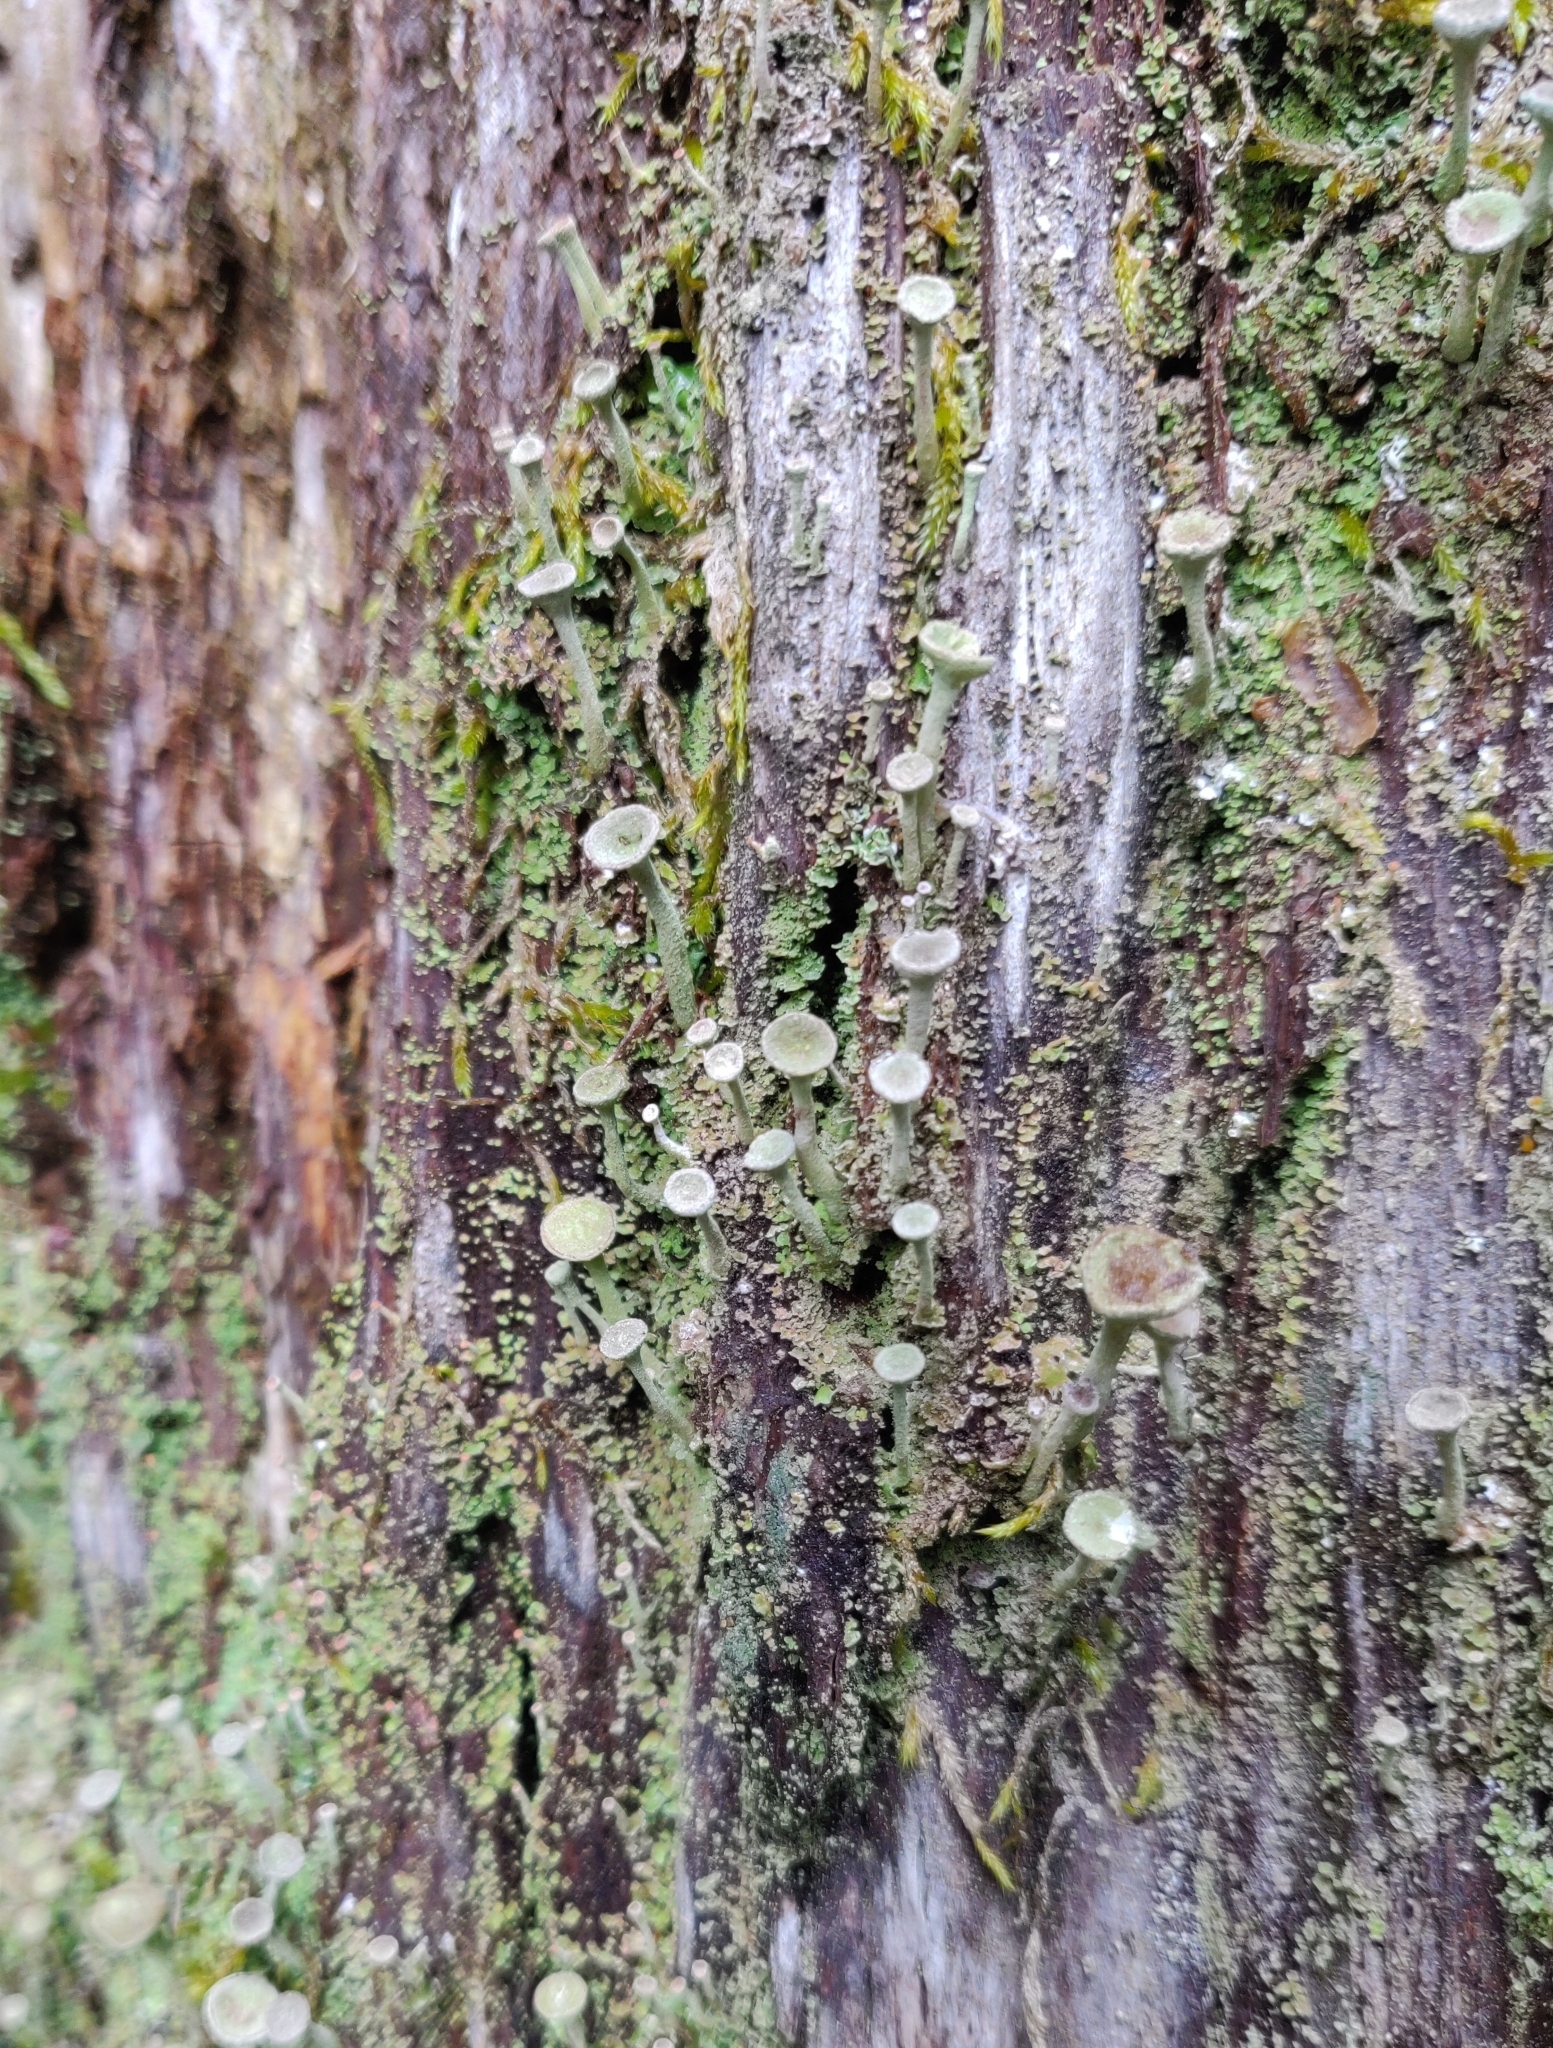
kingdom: Fungi
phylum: Ascomycota
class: Lecanoromycetes
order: Lecanorales
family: Cladoniaceae
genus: Cladonia
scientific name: Cladonia fimbriata
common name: Powdered trumpet lichen
